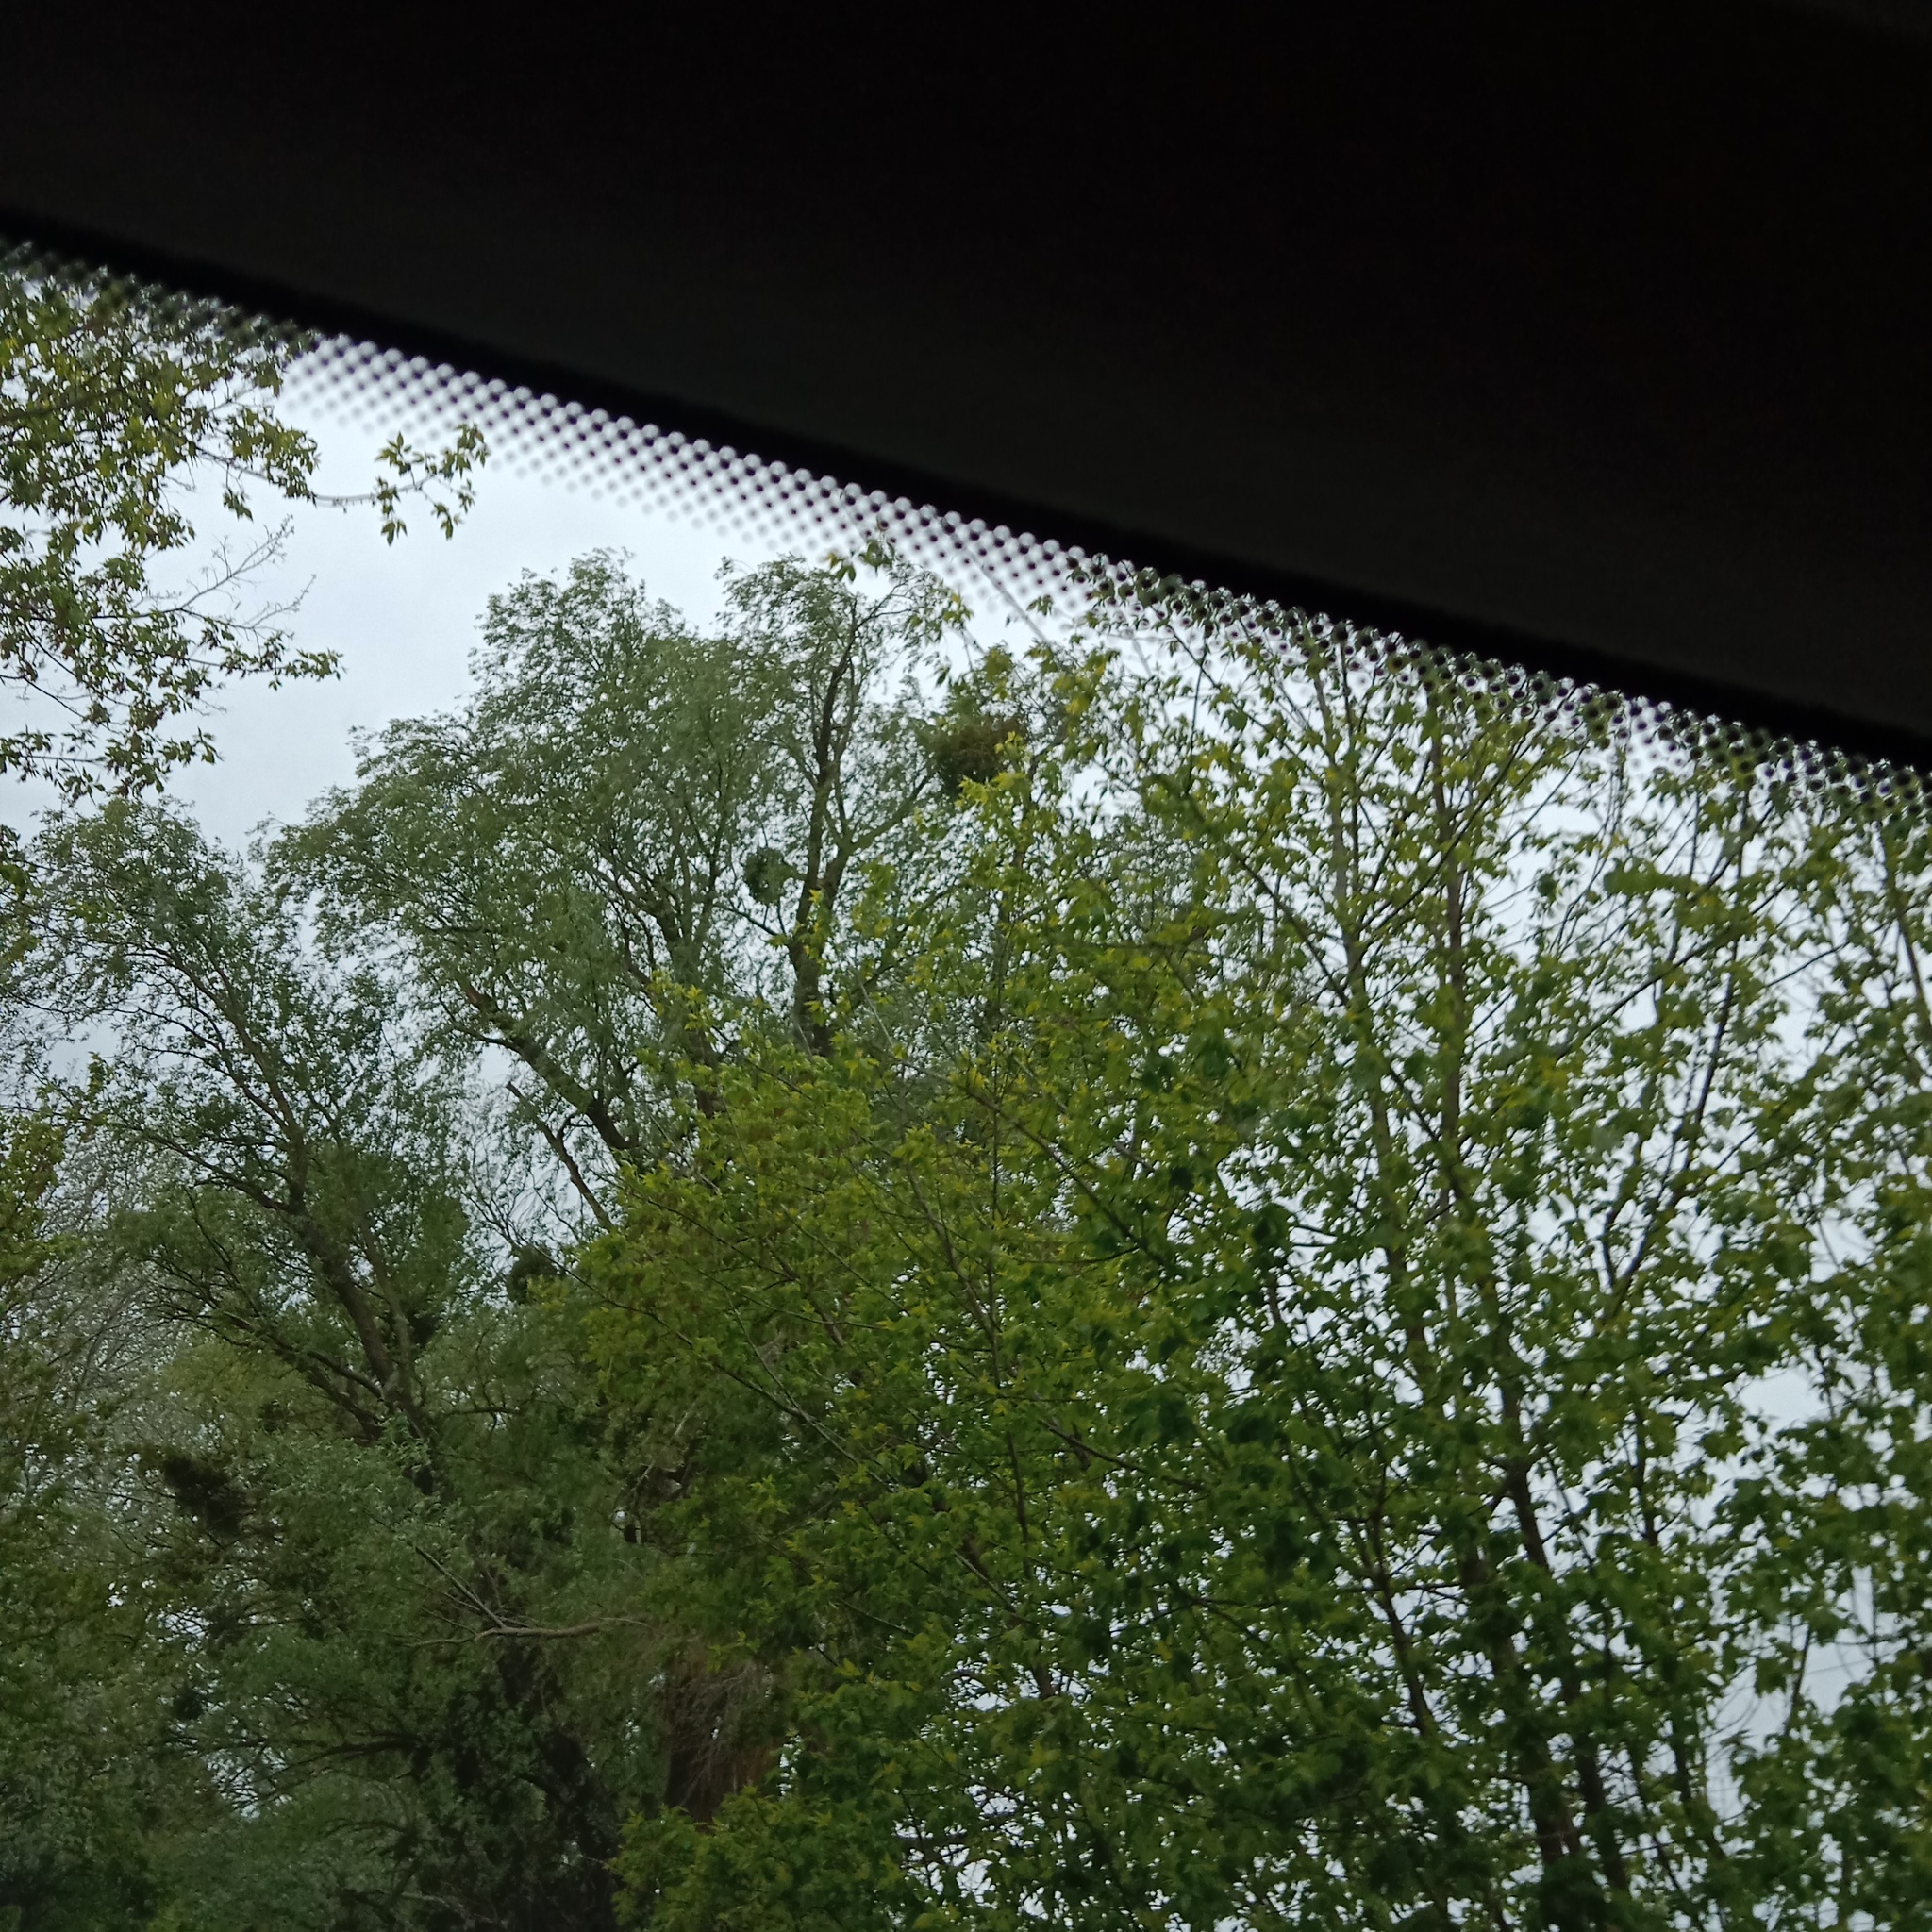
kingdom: Plantae
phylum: Tracheophyta
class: Magnoliopsida
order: Santalales
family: Viscaceae
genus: Viscum
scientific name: Viscum album
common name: Mistletoe
